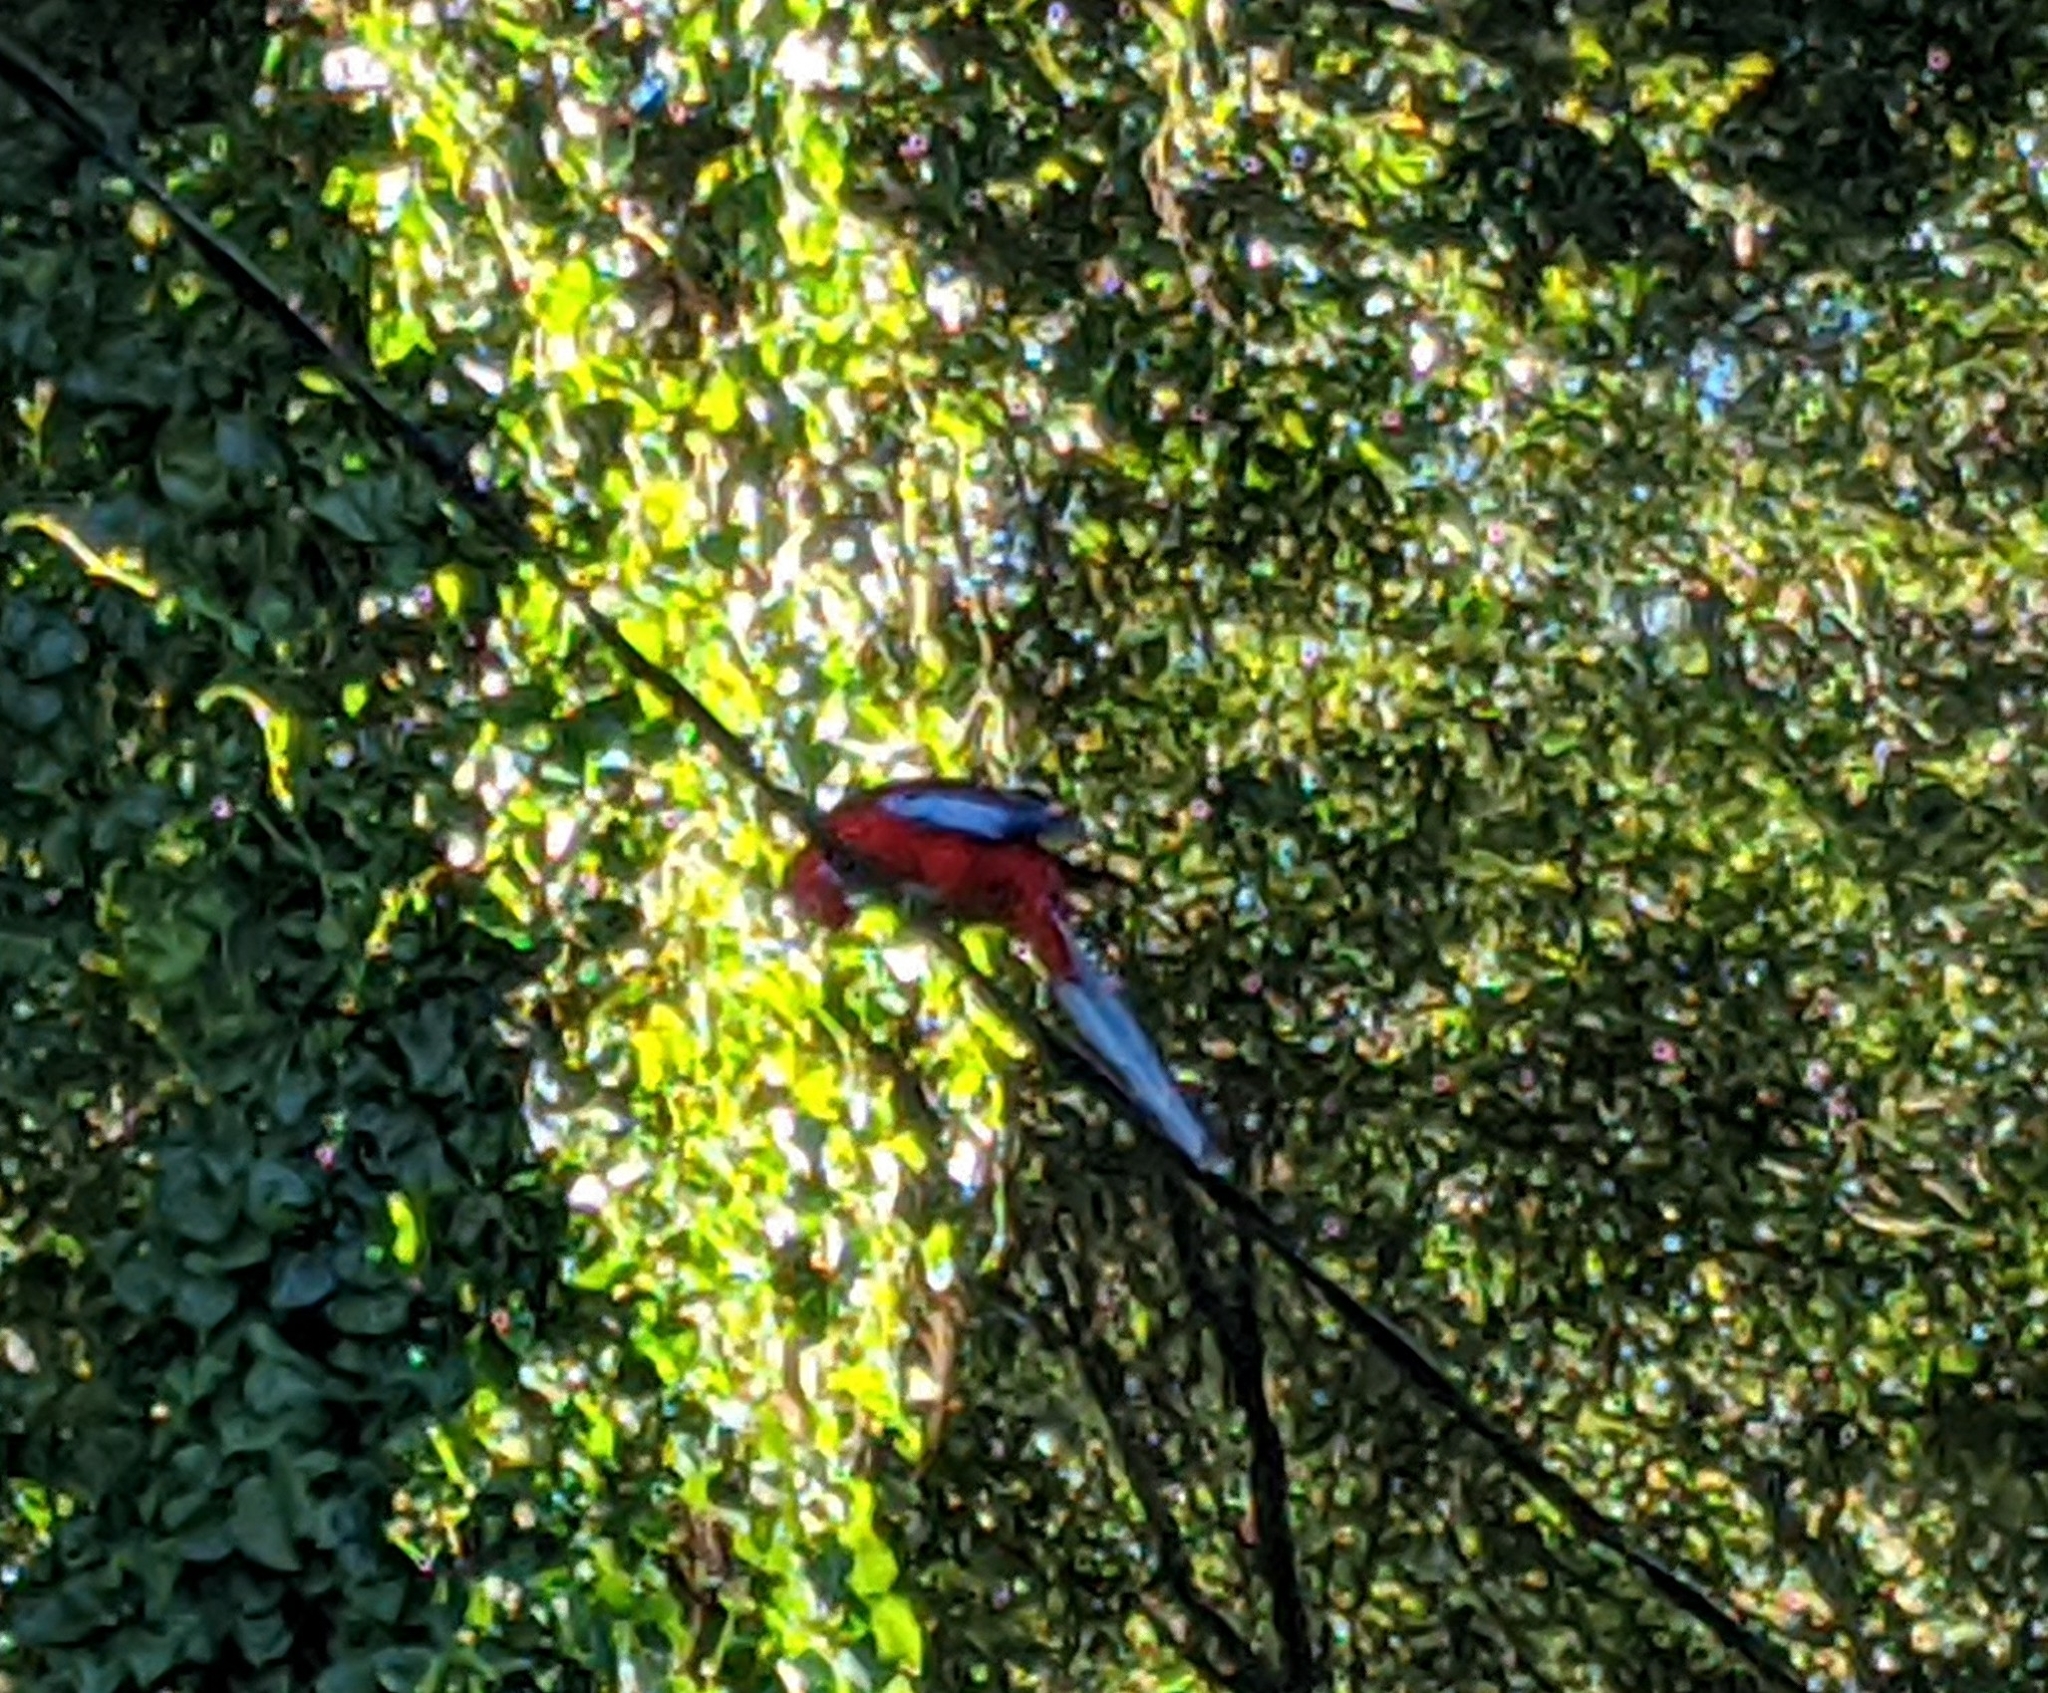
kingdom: Animalia
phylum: Chordata
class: Aves
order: Psittaciformes
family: Psittacidae
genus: Platycercus
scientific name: Platycercus elegans
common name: Crimson rosella
